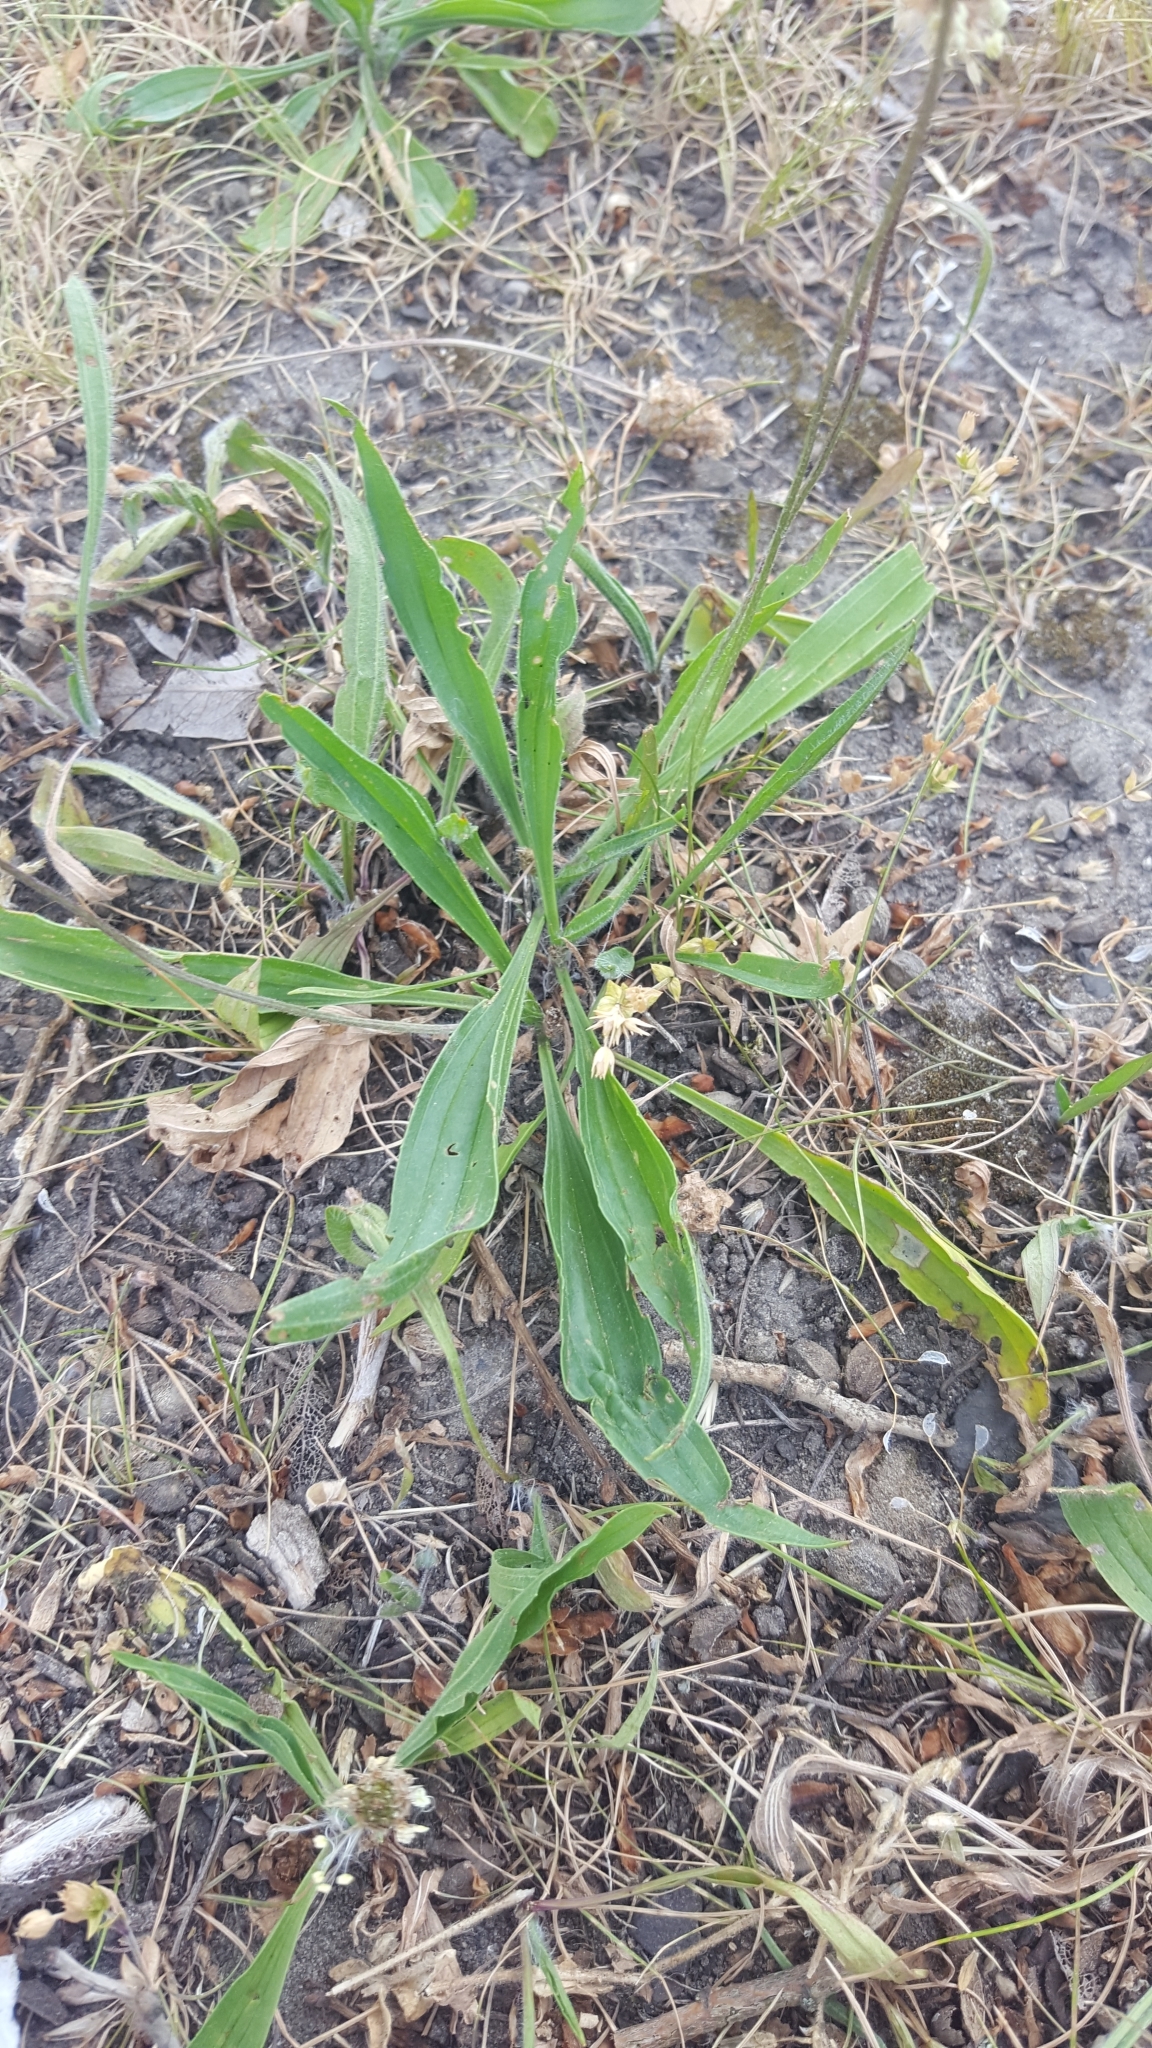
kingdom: Plantae
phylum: Tracheophyta
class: Magnoliopsida
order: Lamiales
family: Plantaginaceae
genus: Plantago
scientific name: Plantago lanceolata
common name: Ribwort plantain
